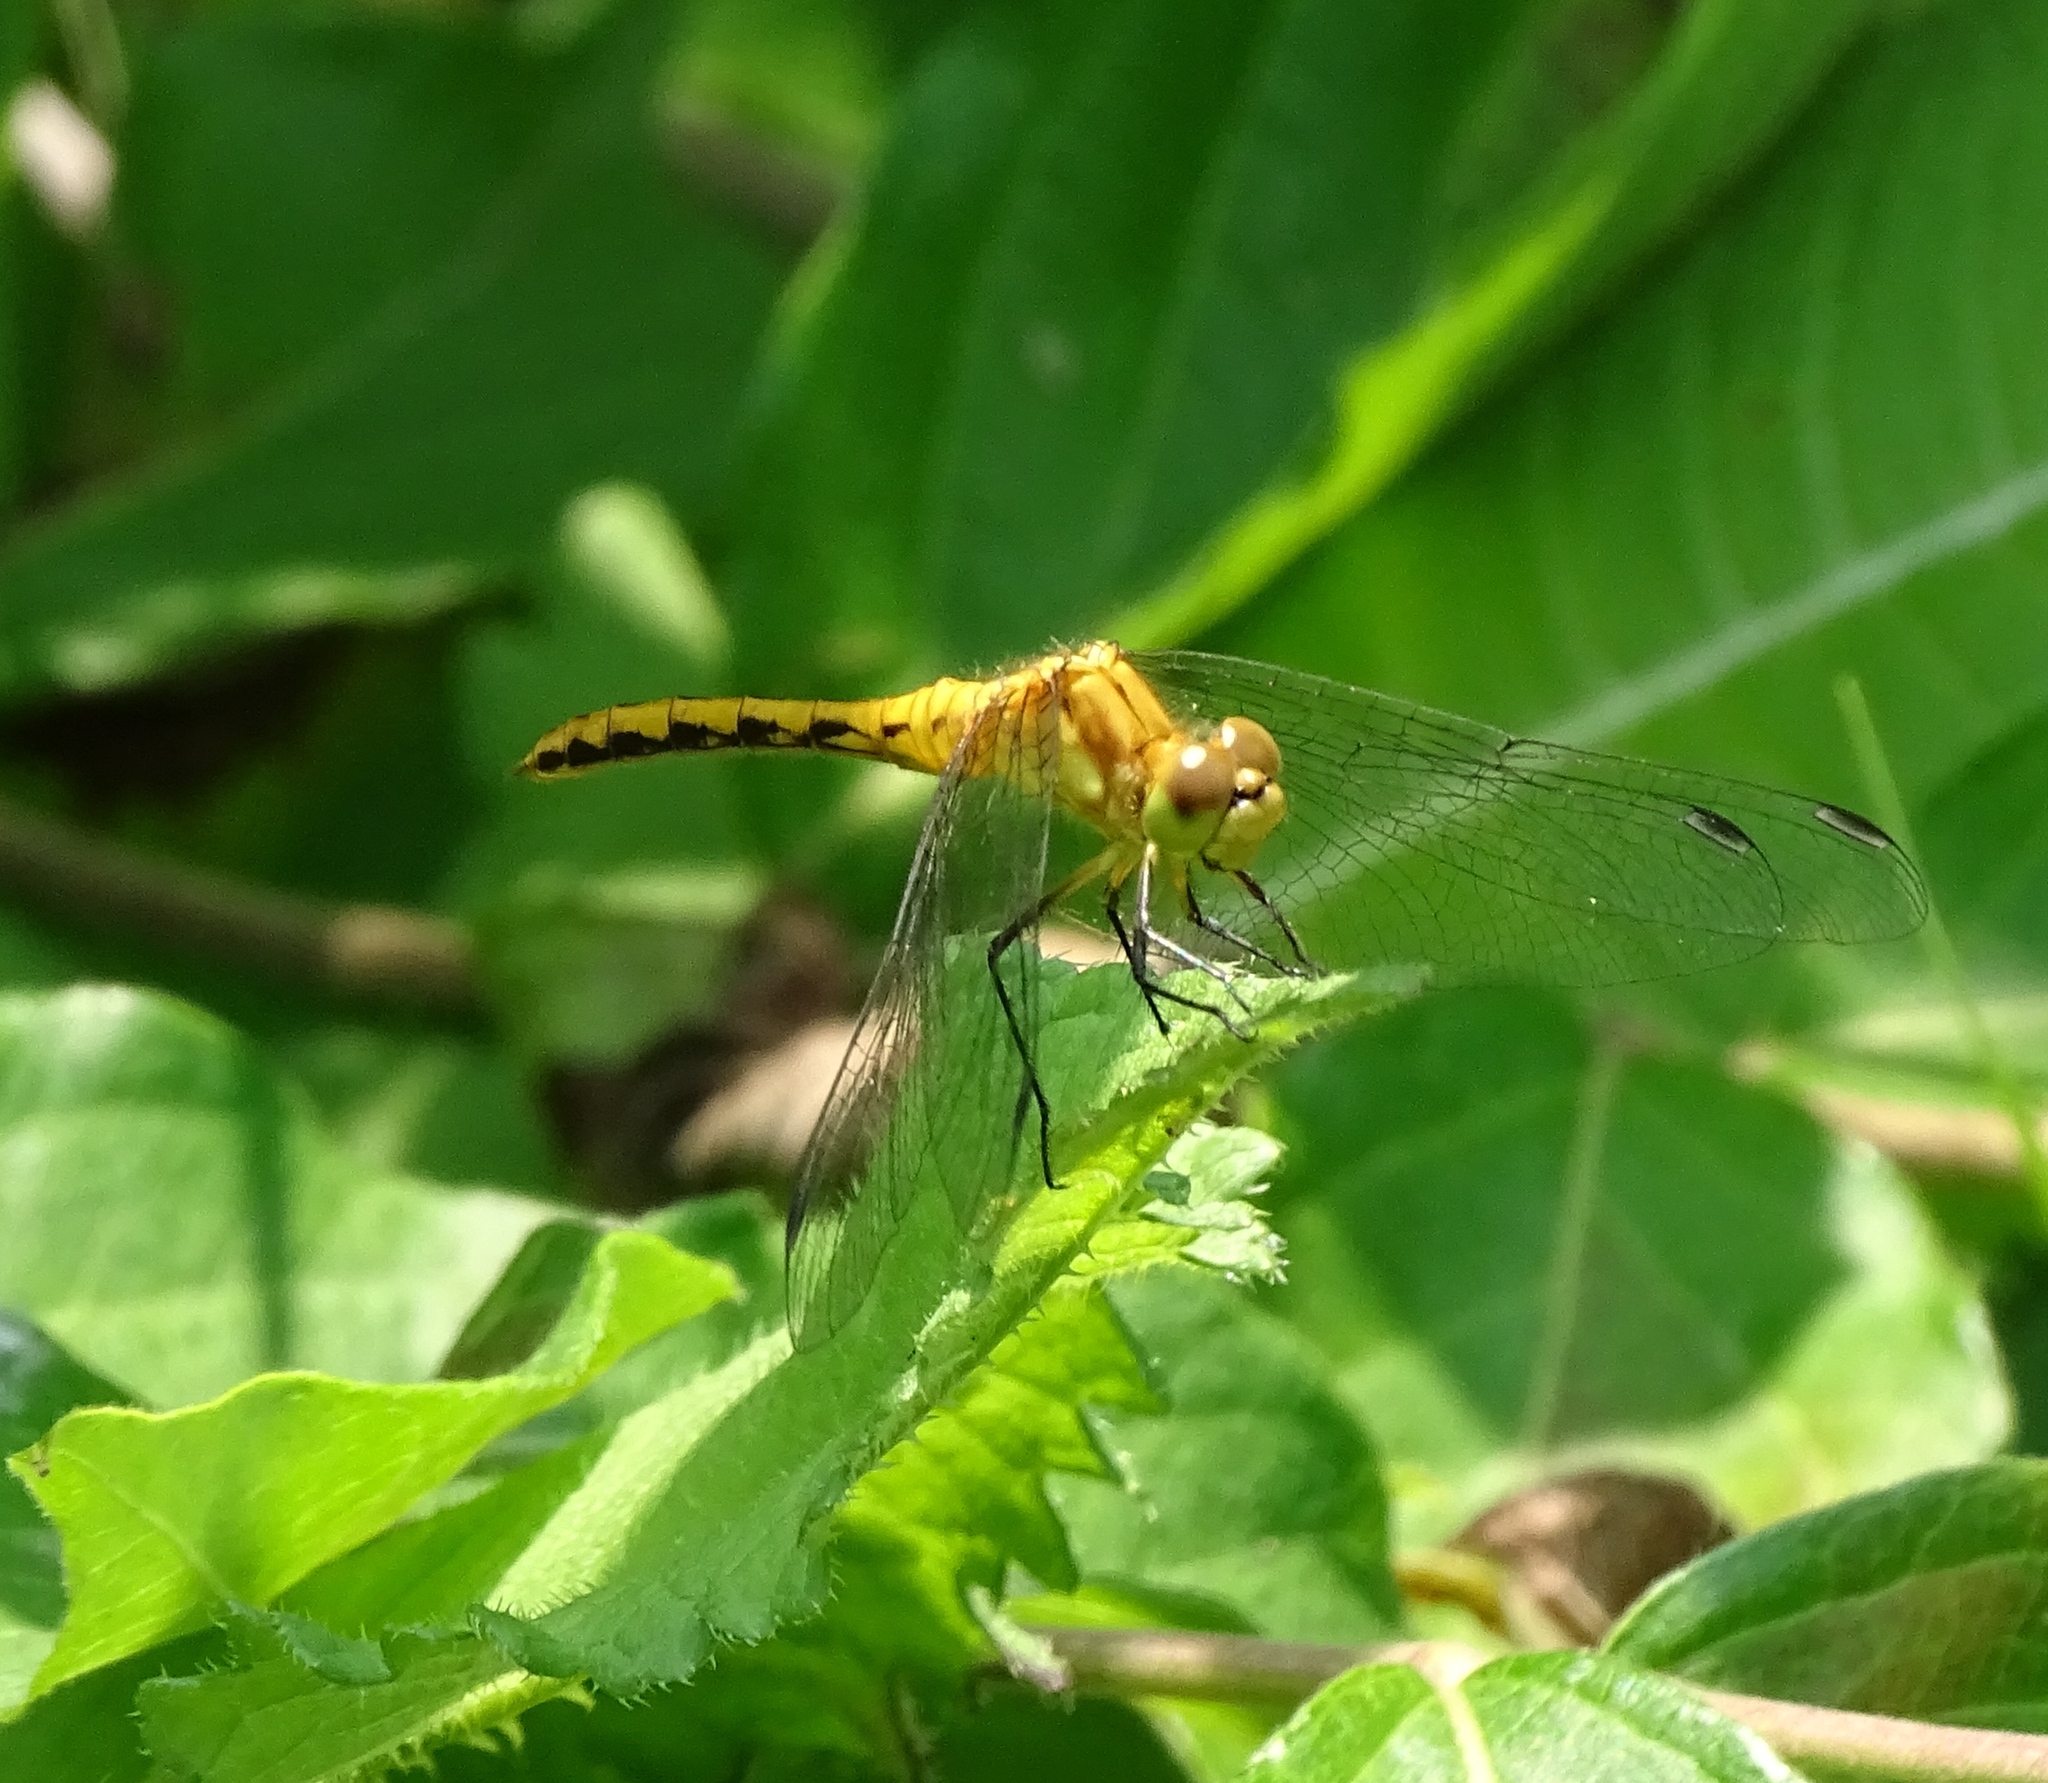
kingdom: Animalia
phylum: Arthropoda
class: Insecta
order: Odonata
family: Libellulidae
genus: Sympetrum
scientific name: Sympetrum
